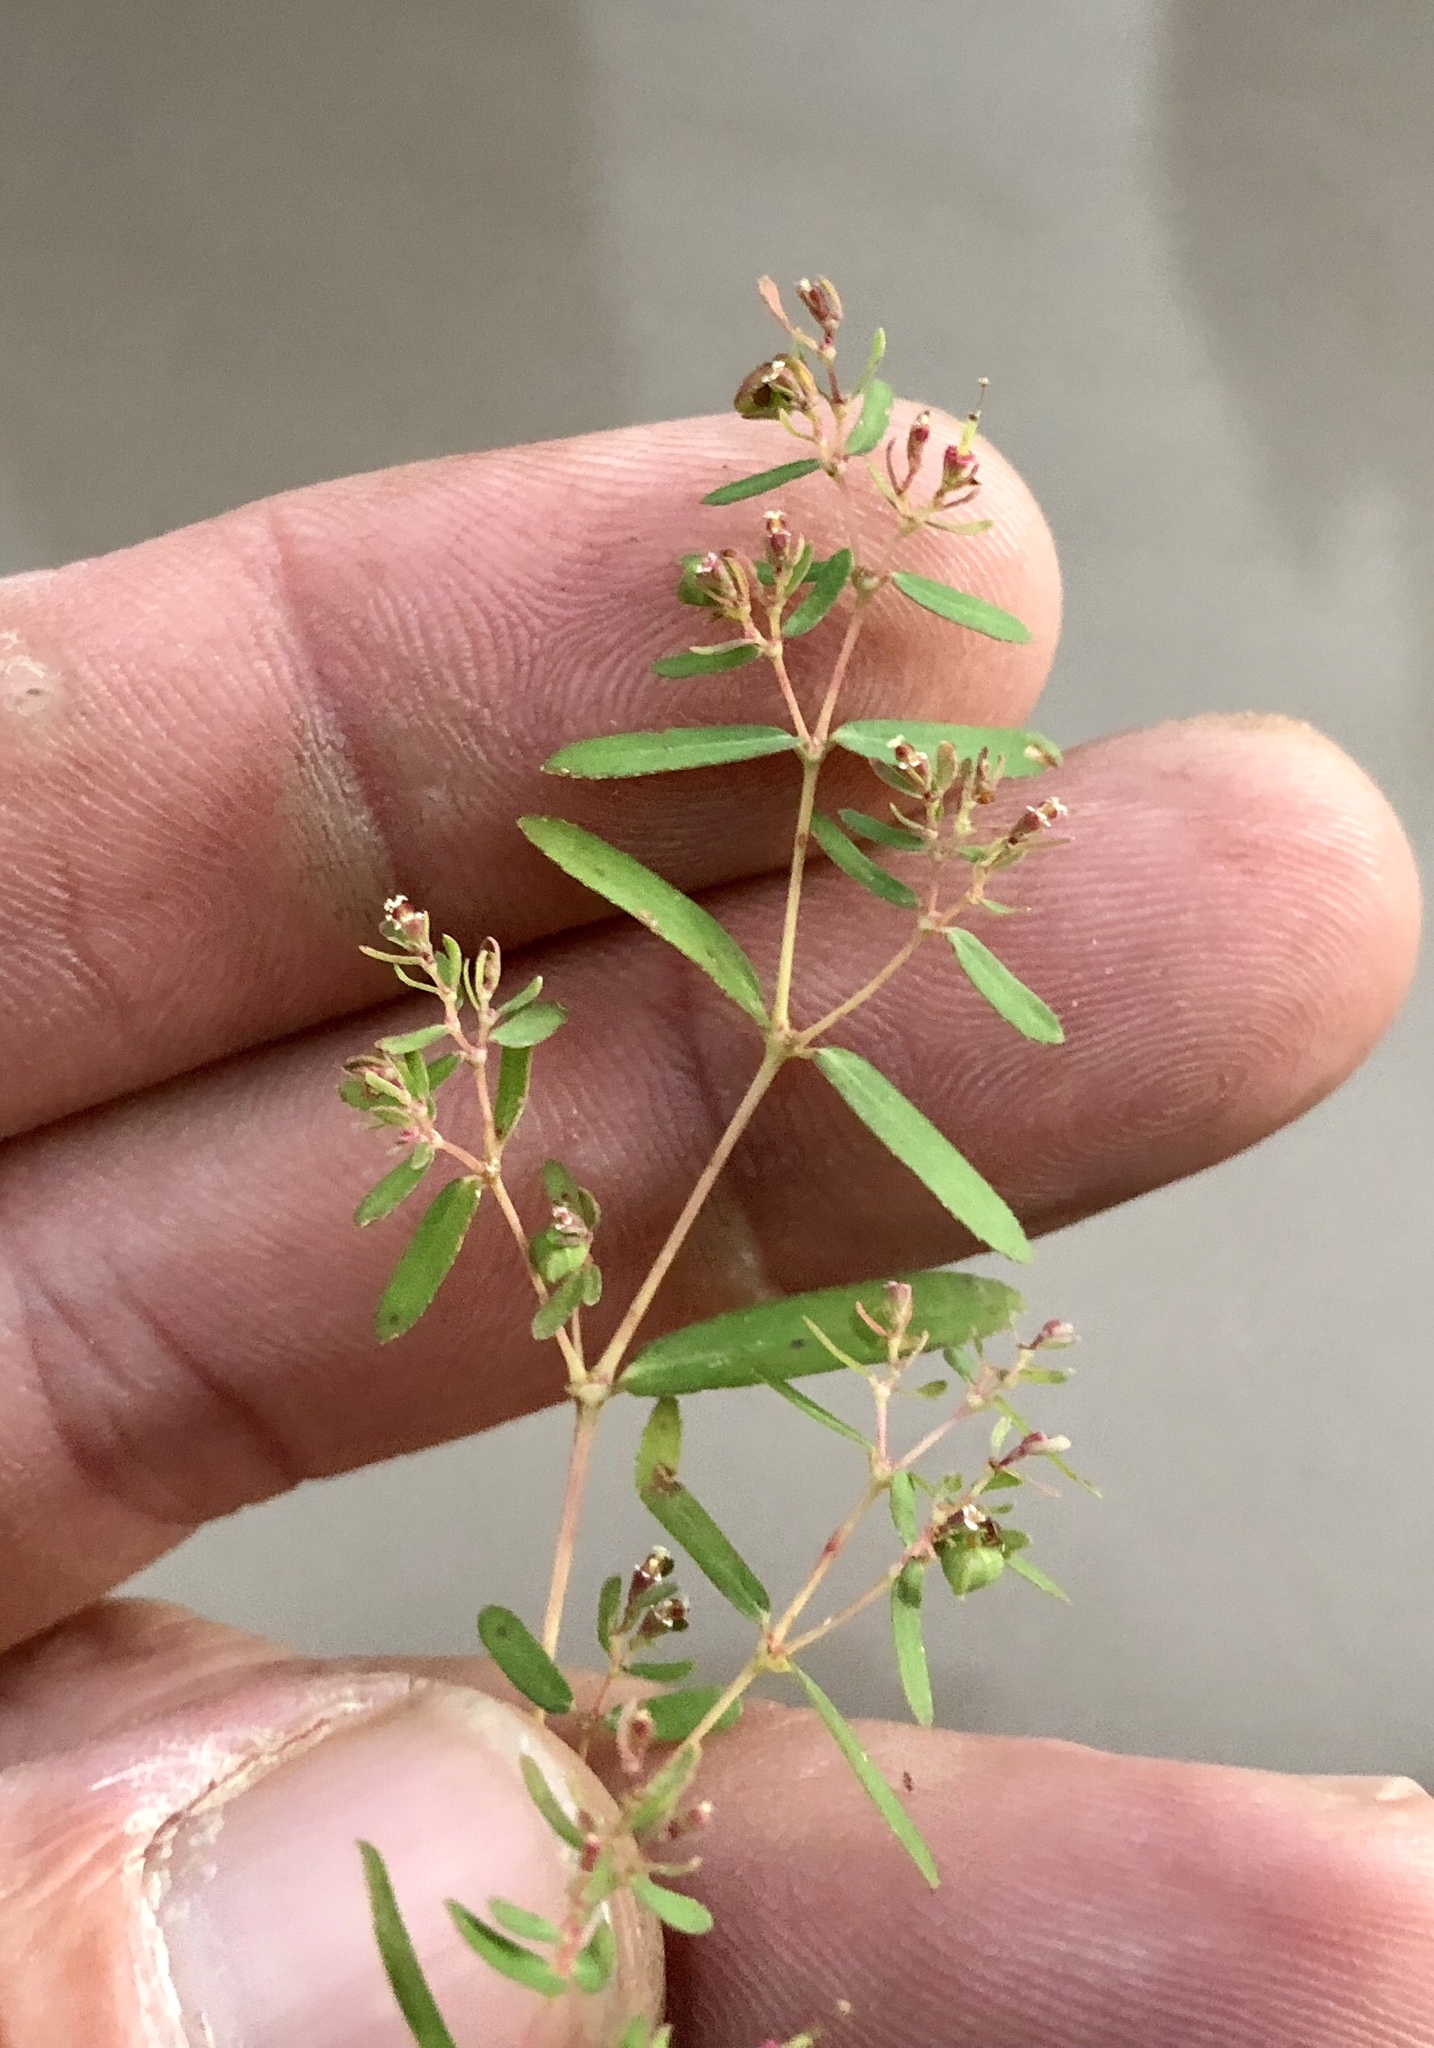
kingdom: Plantae
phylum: Tracheophyta
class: Magnoliopsida
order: Malpighiales
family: Euphorbiaceae
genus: Euphorbia
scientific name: Euphorbia hyssopifolia
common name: Hyssopleaf sandmat
